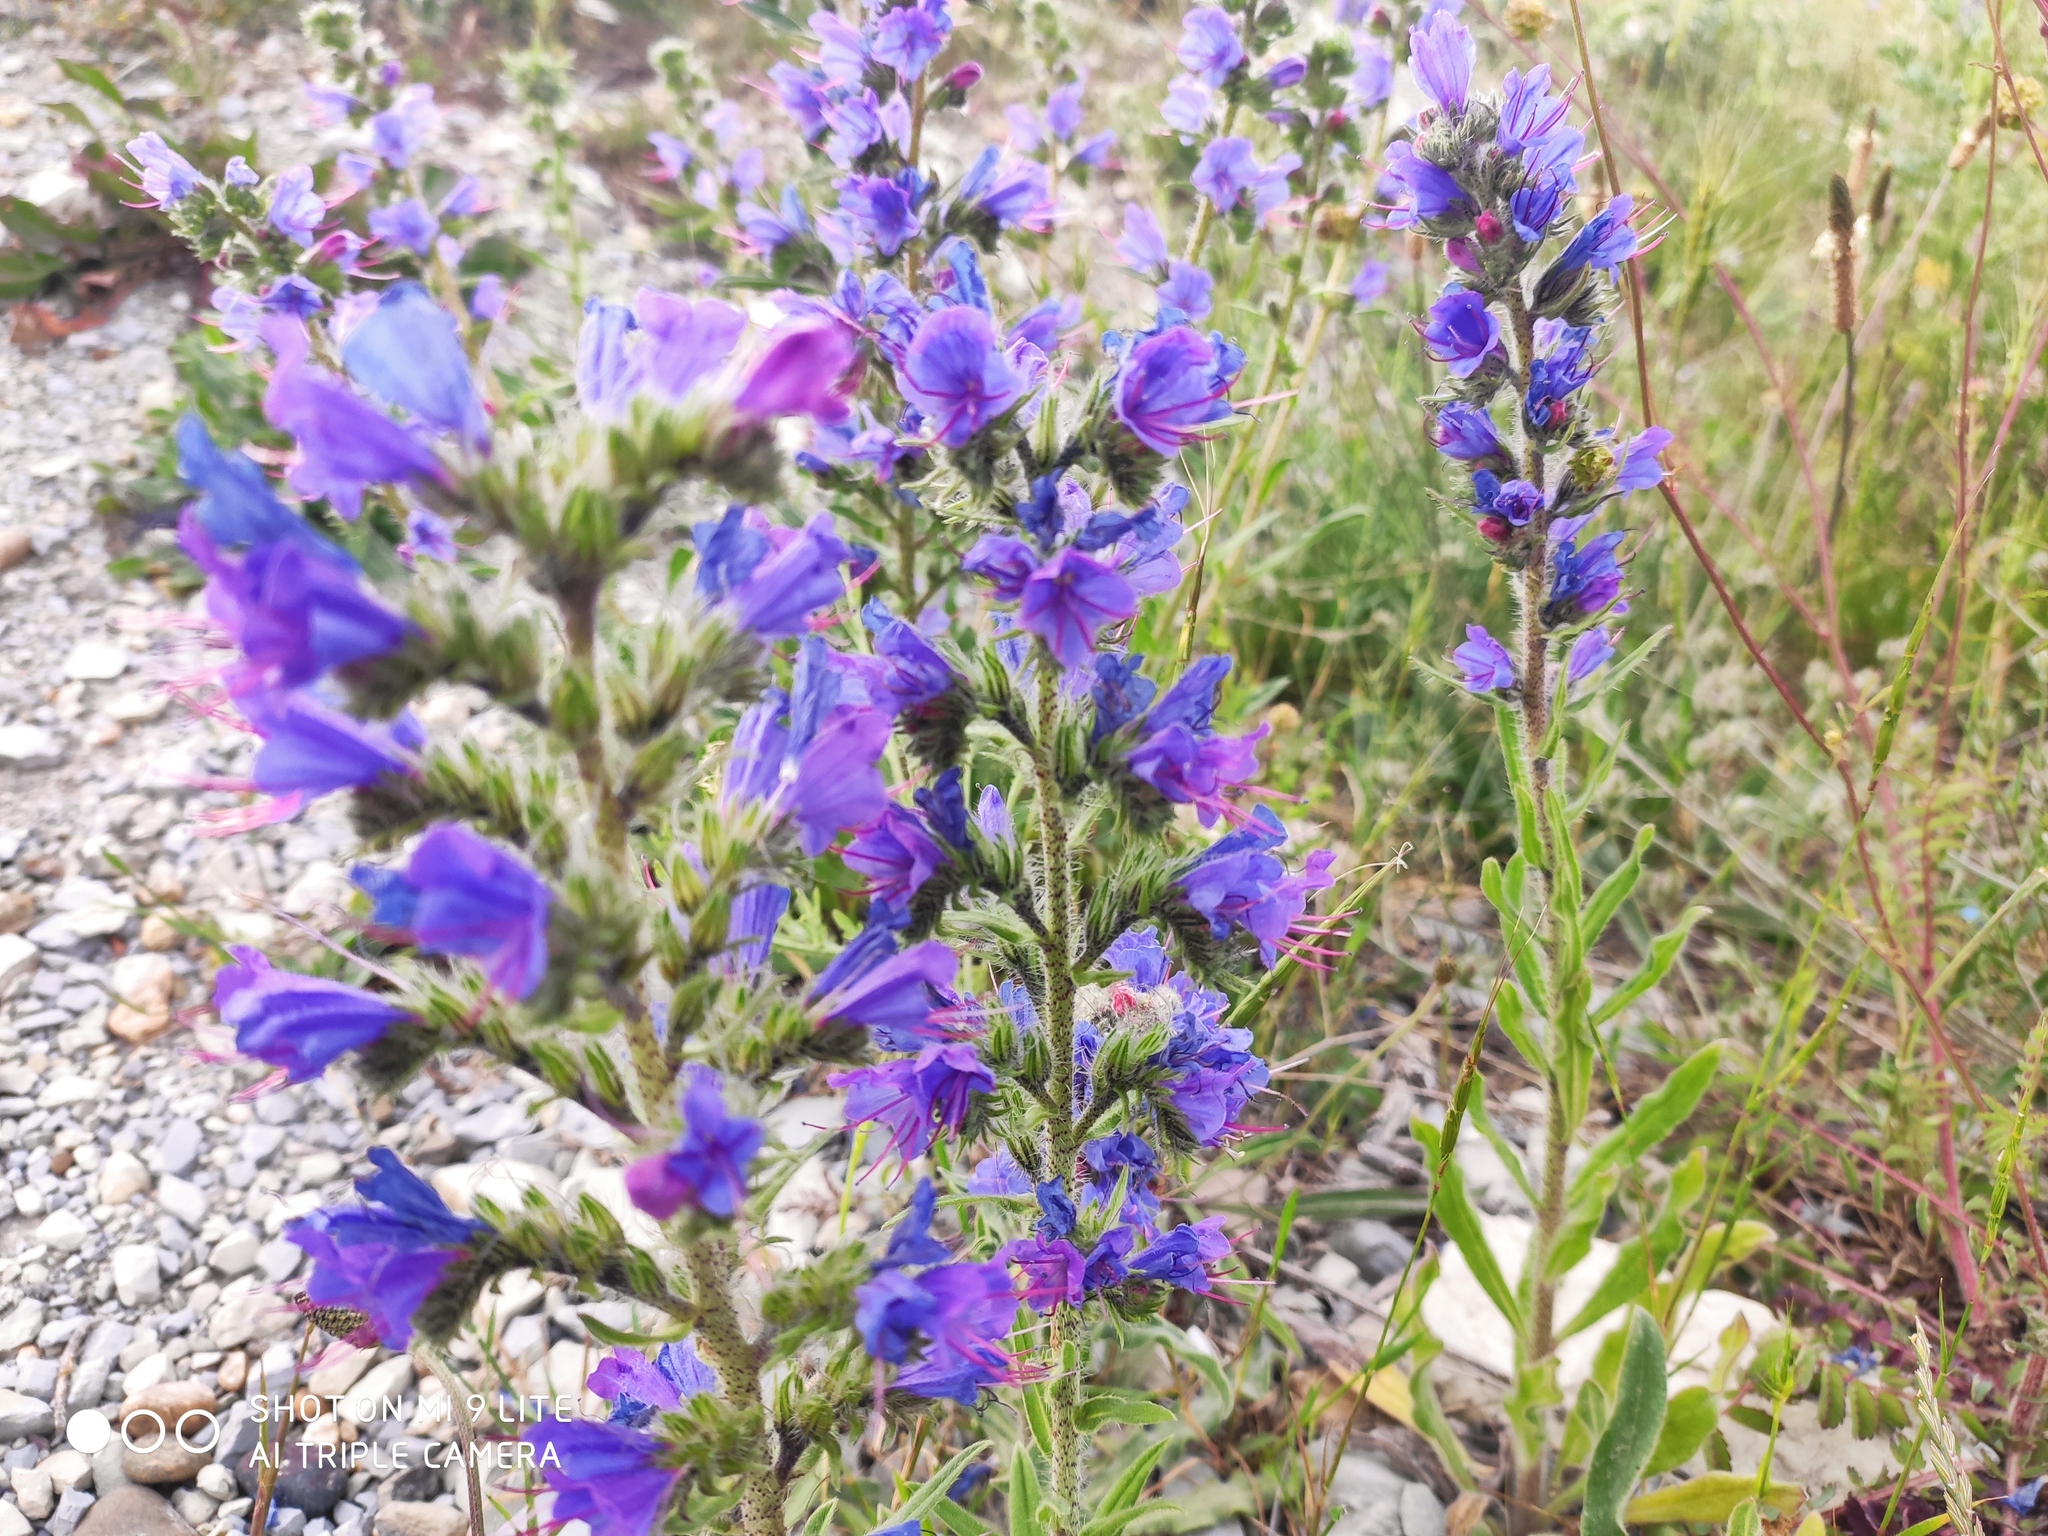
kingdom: Plantae
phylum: Tracheophyta
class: Magnoliopsida
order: Boraginales
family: Boraginaceae
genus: Echium
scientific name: Echium vulgare
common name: Common viper's bugloss
